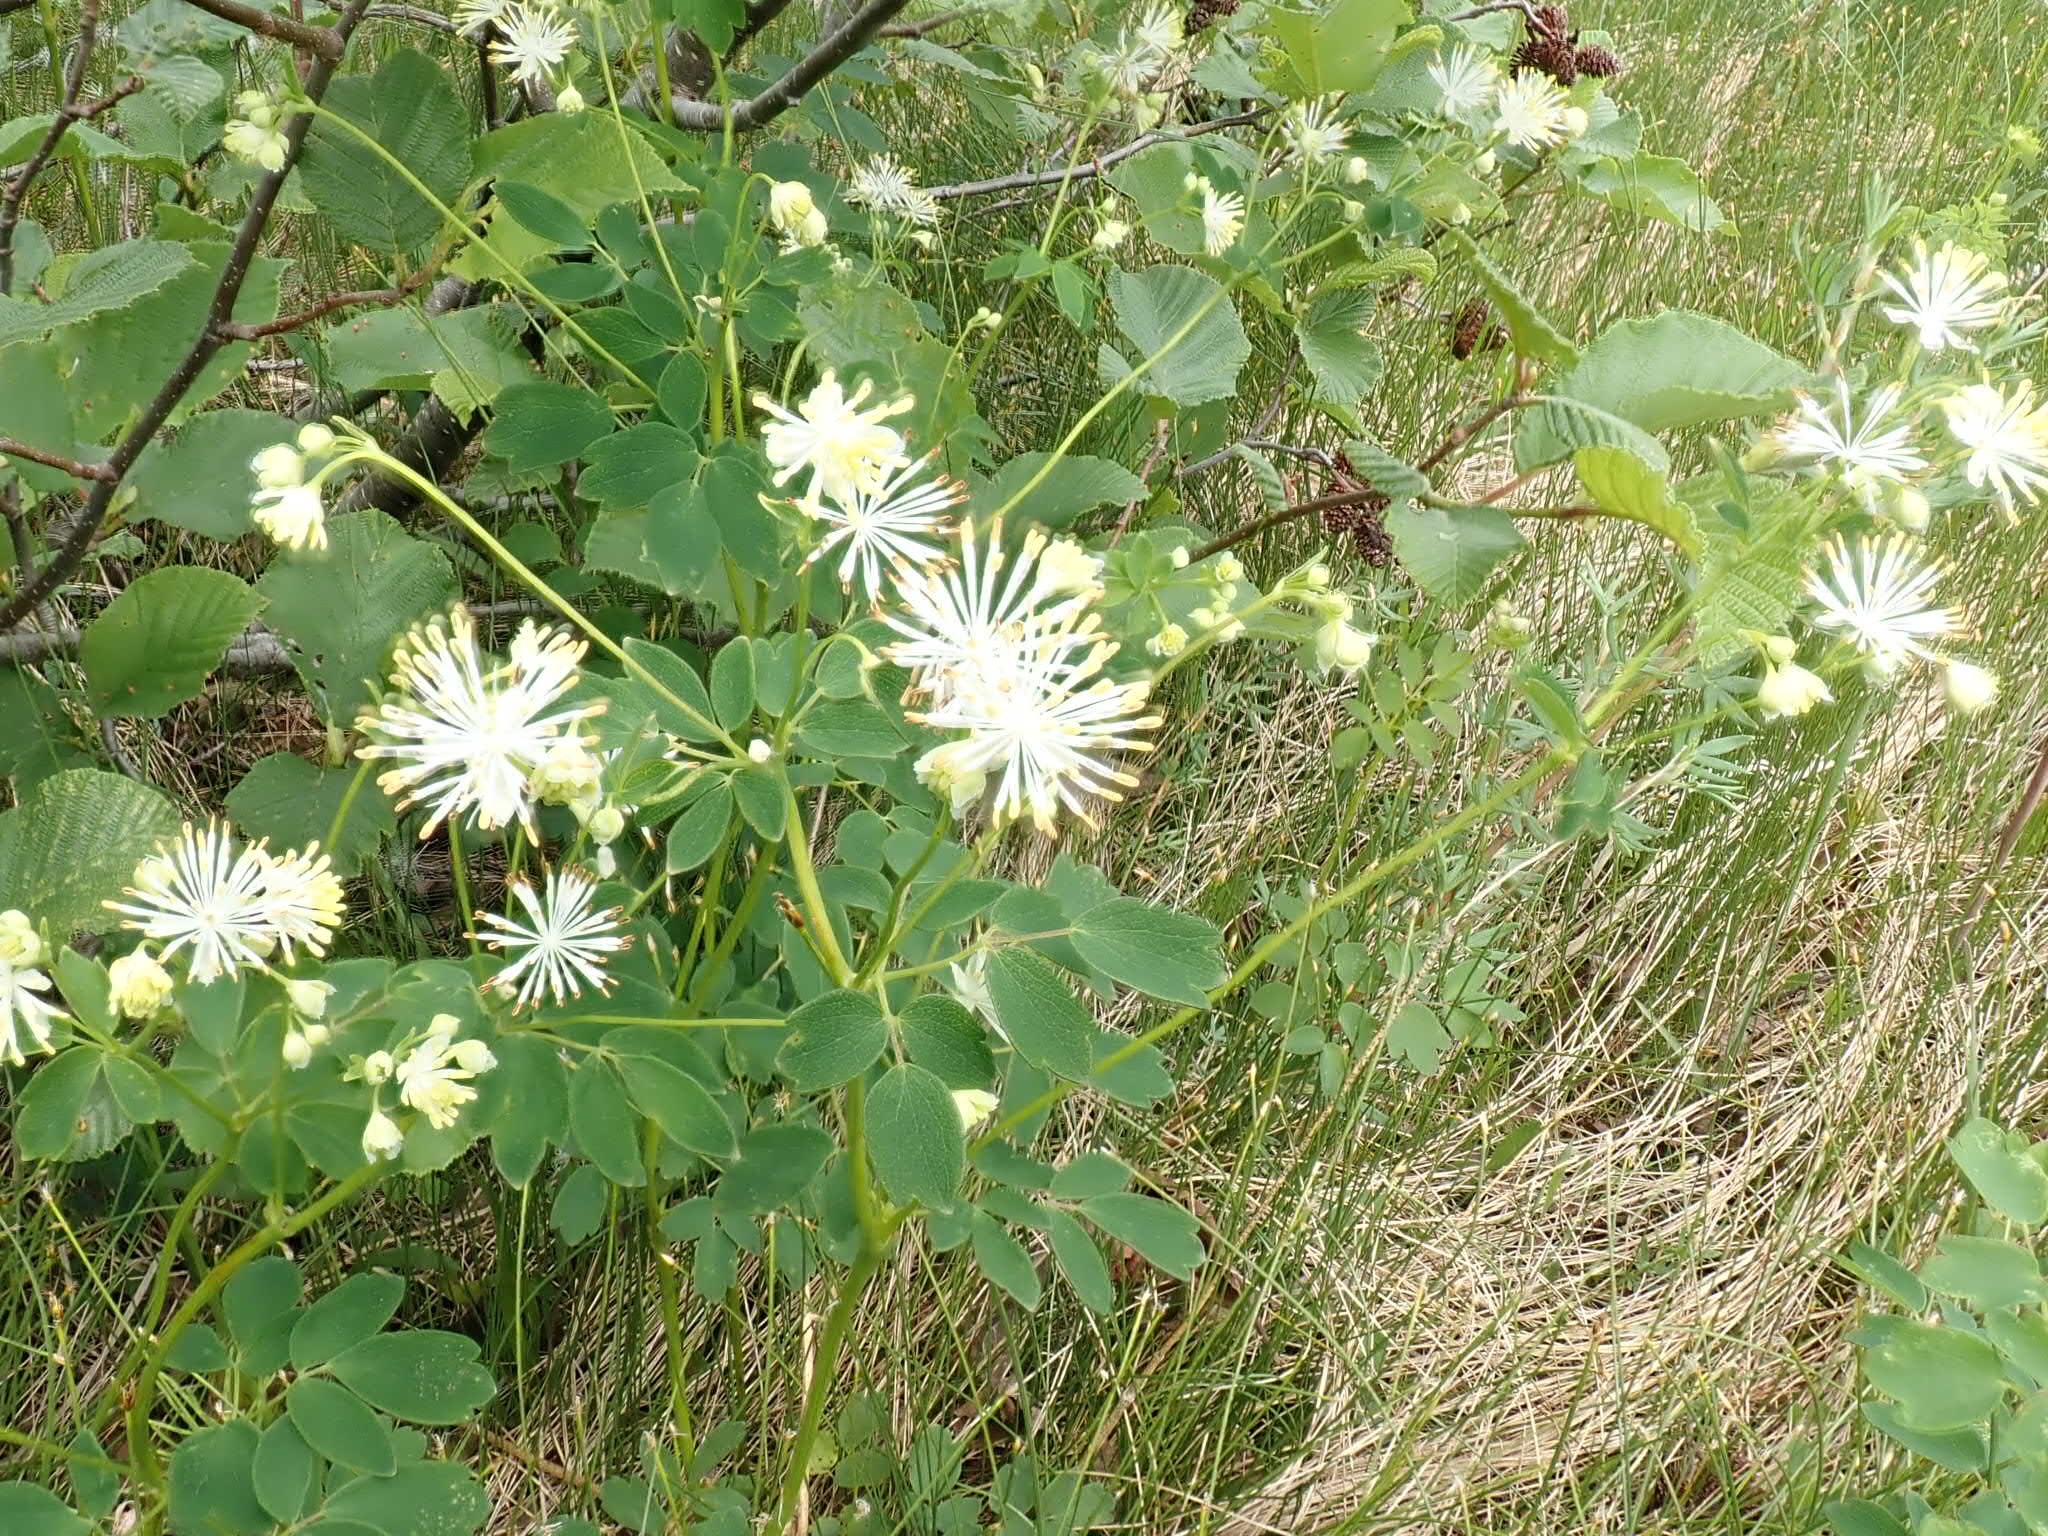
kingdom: Plantae
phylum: Tracheophyta
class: Magnoliopsida
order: Ranunculales
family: Ranunculaceae
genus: Thalictrum
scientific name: Thalictrum pubescens
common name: King-of-the-meadow
